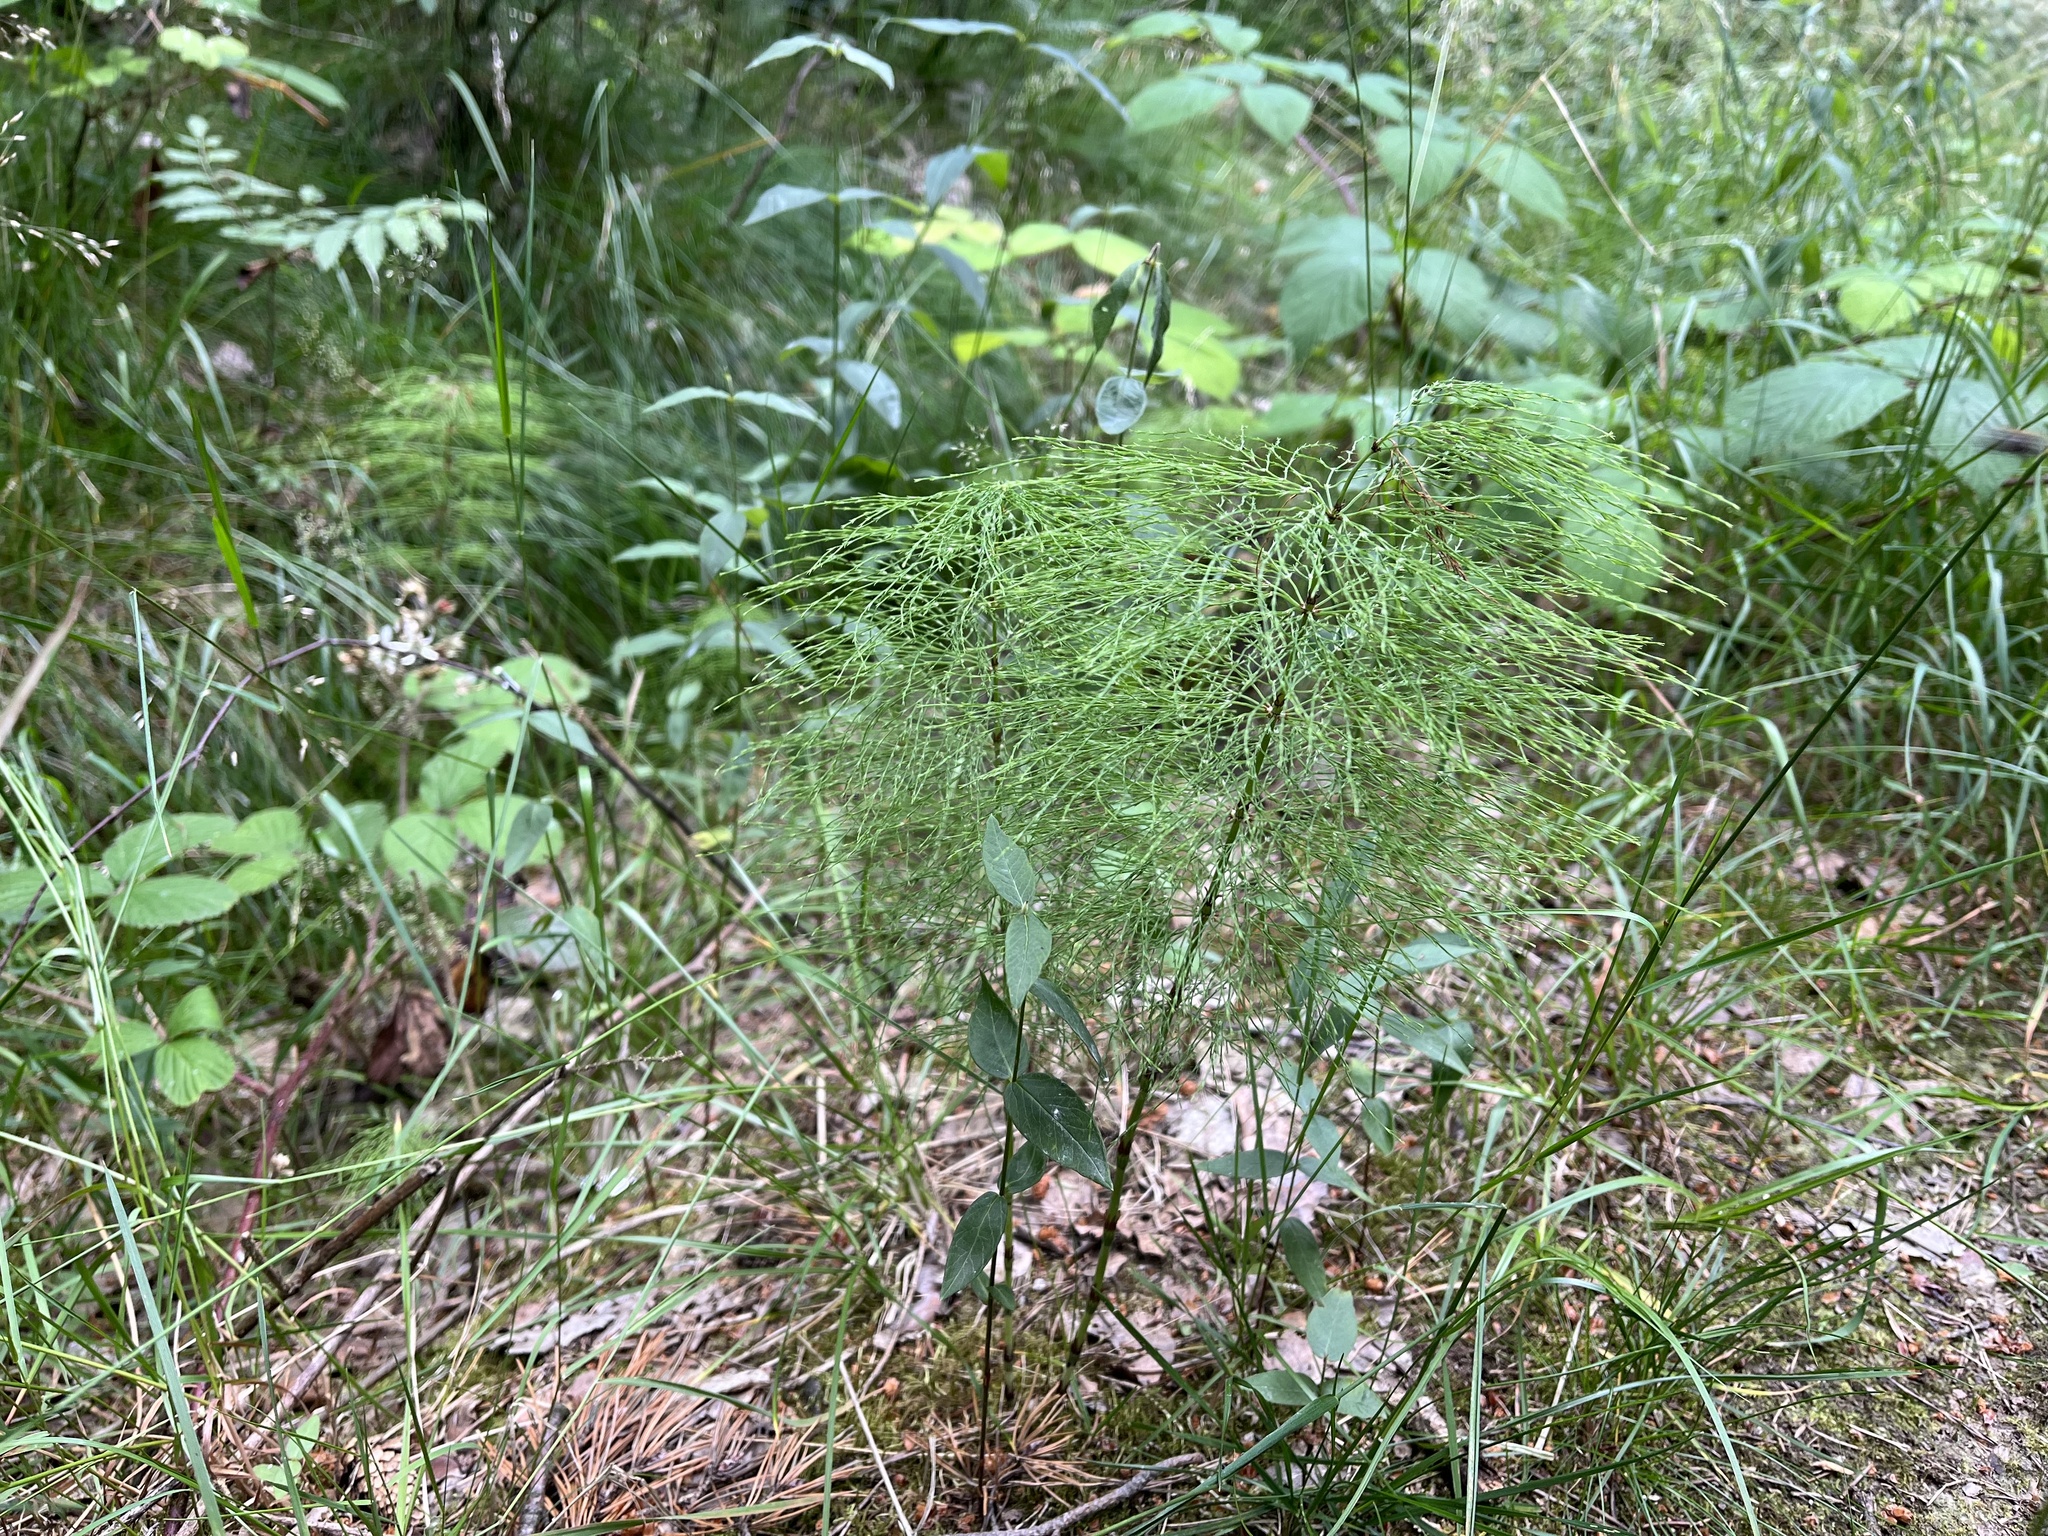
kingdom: Plantae
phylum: Tracheophyta
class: Polypodiopsida
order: Equisetales
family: Equisetaceae
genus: Equisetum
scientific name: Equisetum sylvaticum
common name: Wood horsetail
